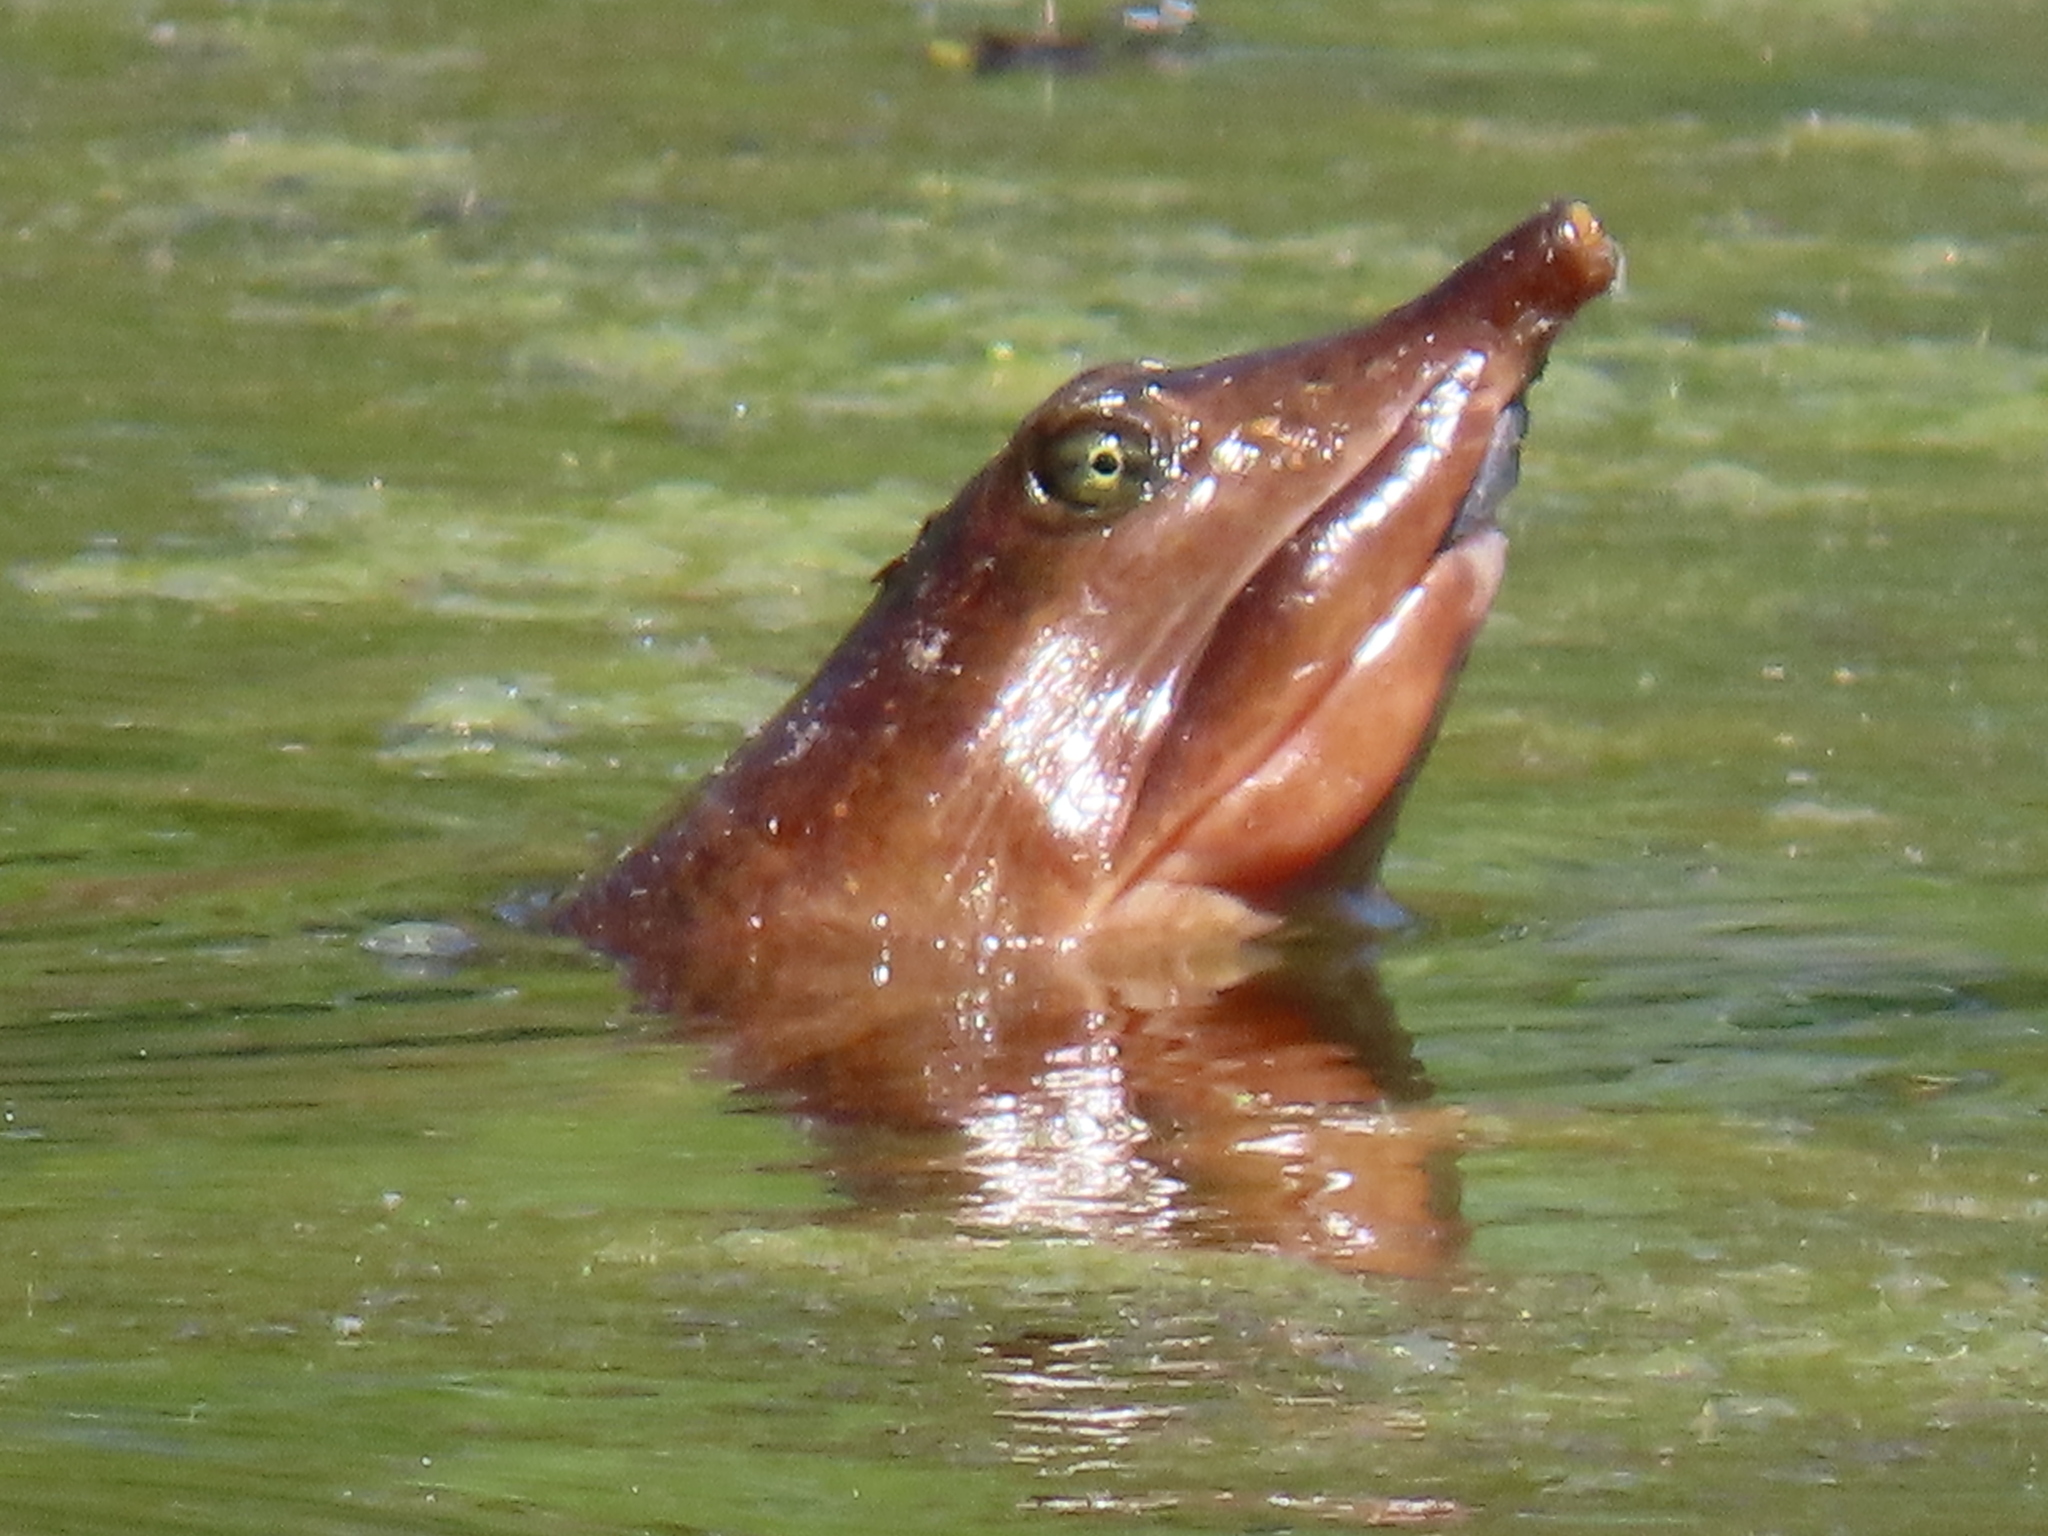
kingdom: Animalia
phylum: Chordata
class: Testudines
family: Trionychidae
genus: Apalone
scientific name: Apalone ferox
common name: Florida softshell turtle
